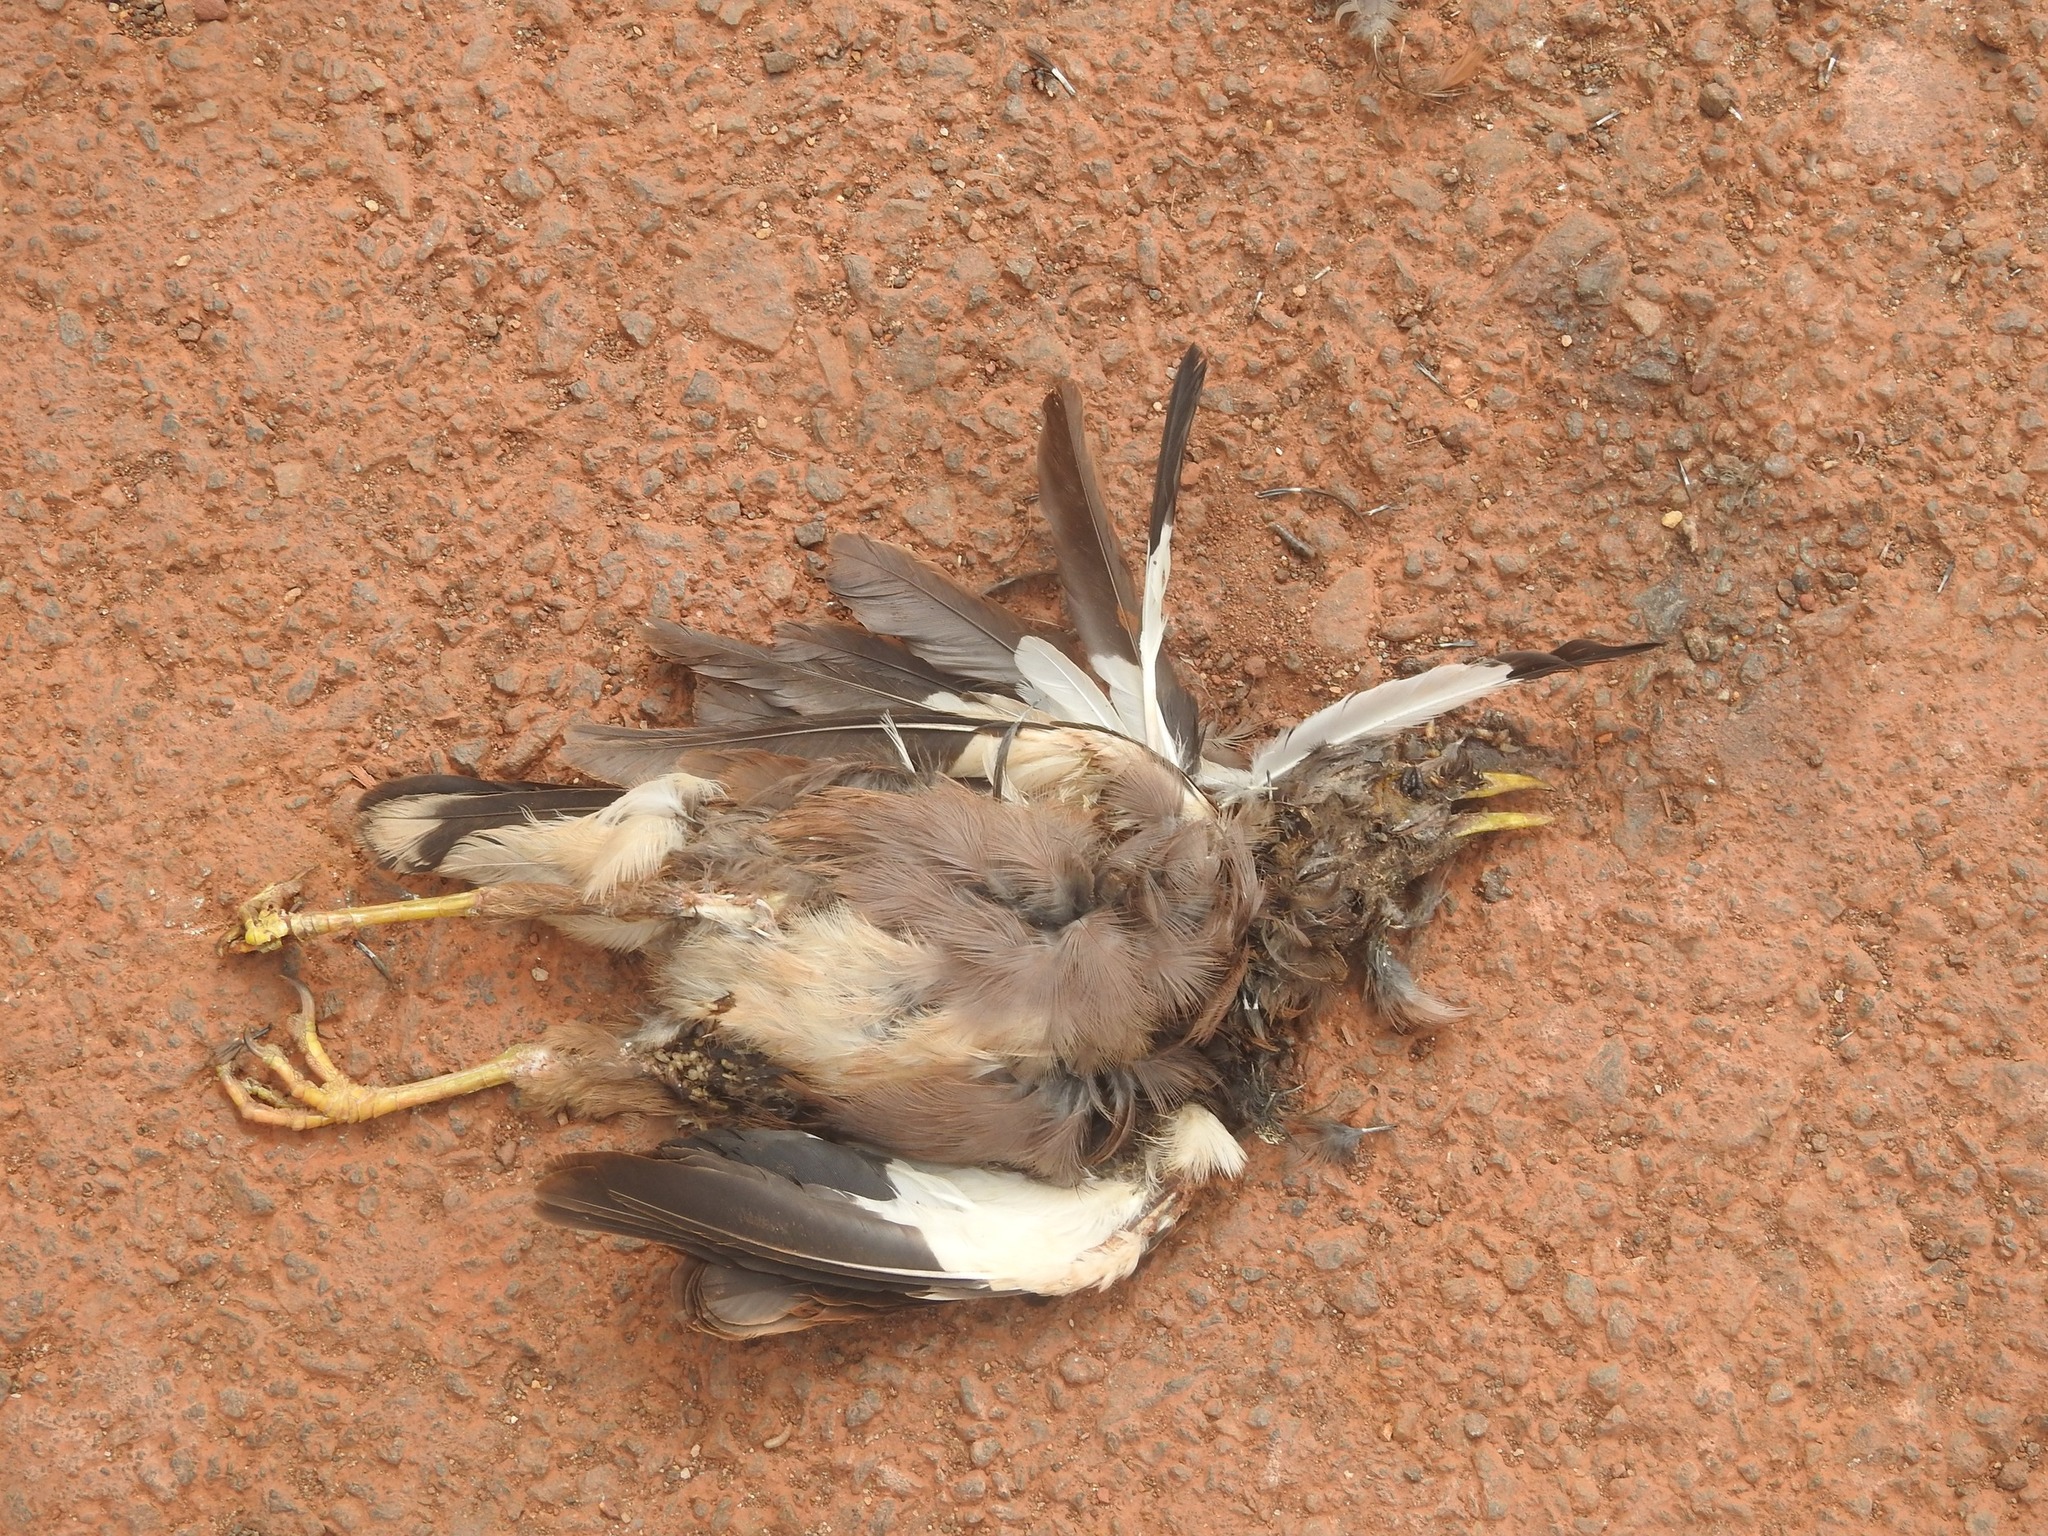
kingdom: Animalia
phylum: Chordata
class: Aves
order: Passeriformes
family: Sturnidae
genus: Acridotheres
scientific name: Acridotheres tristis
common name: Common myna
